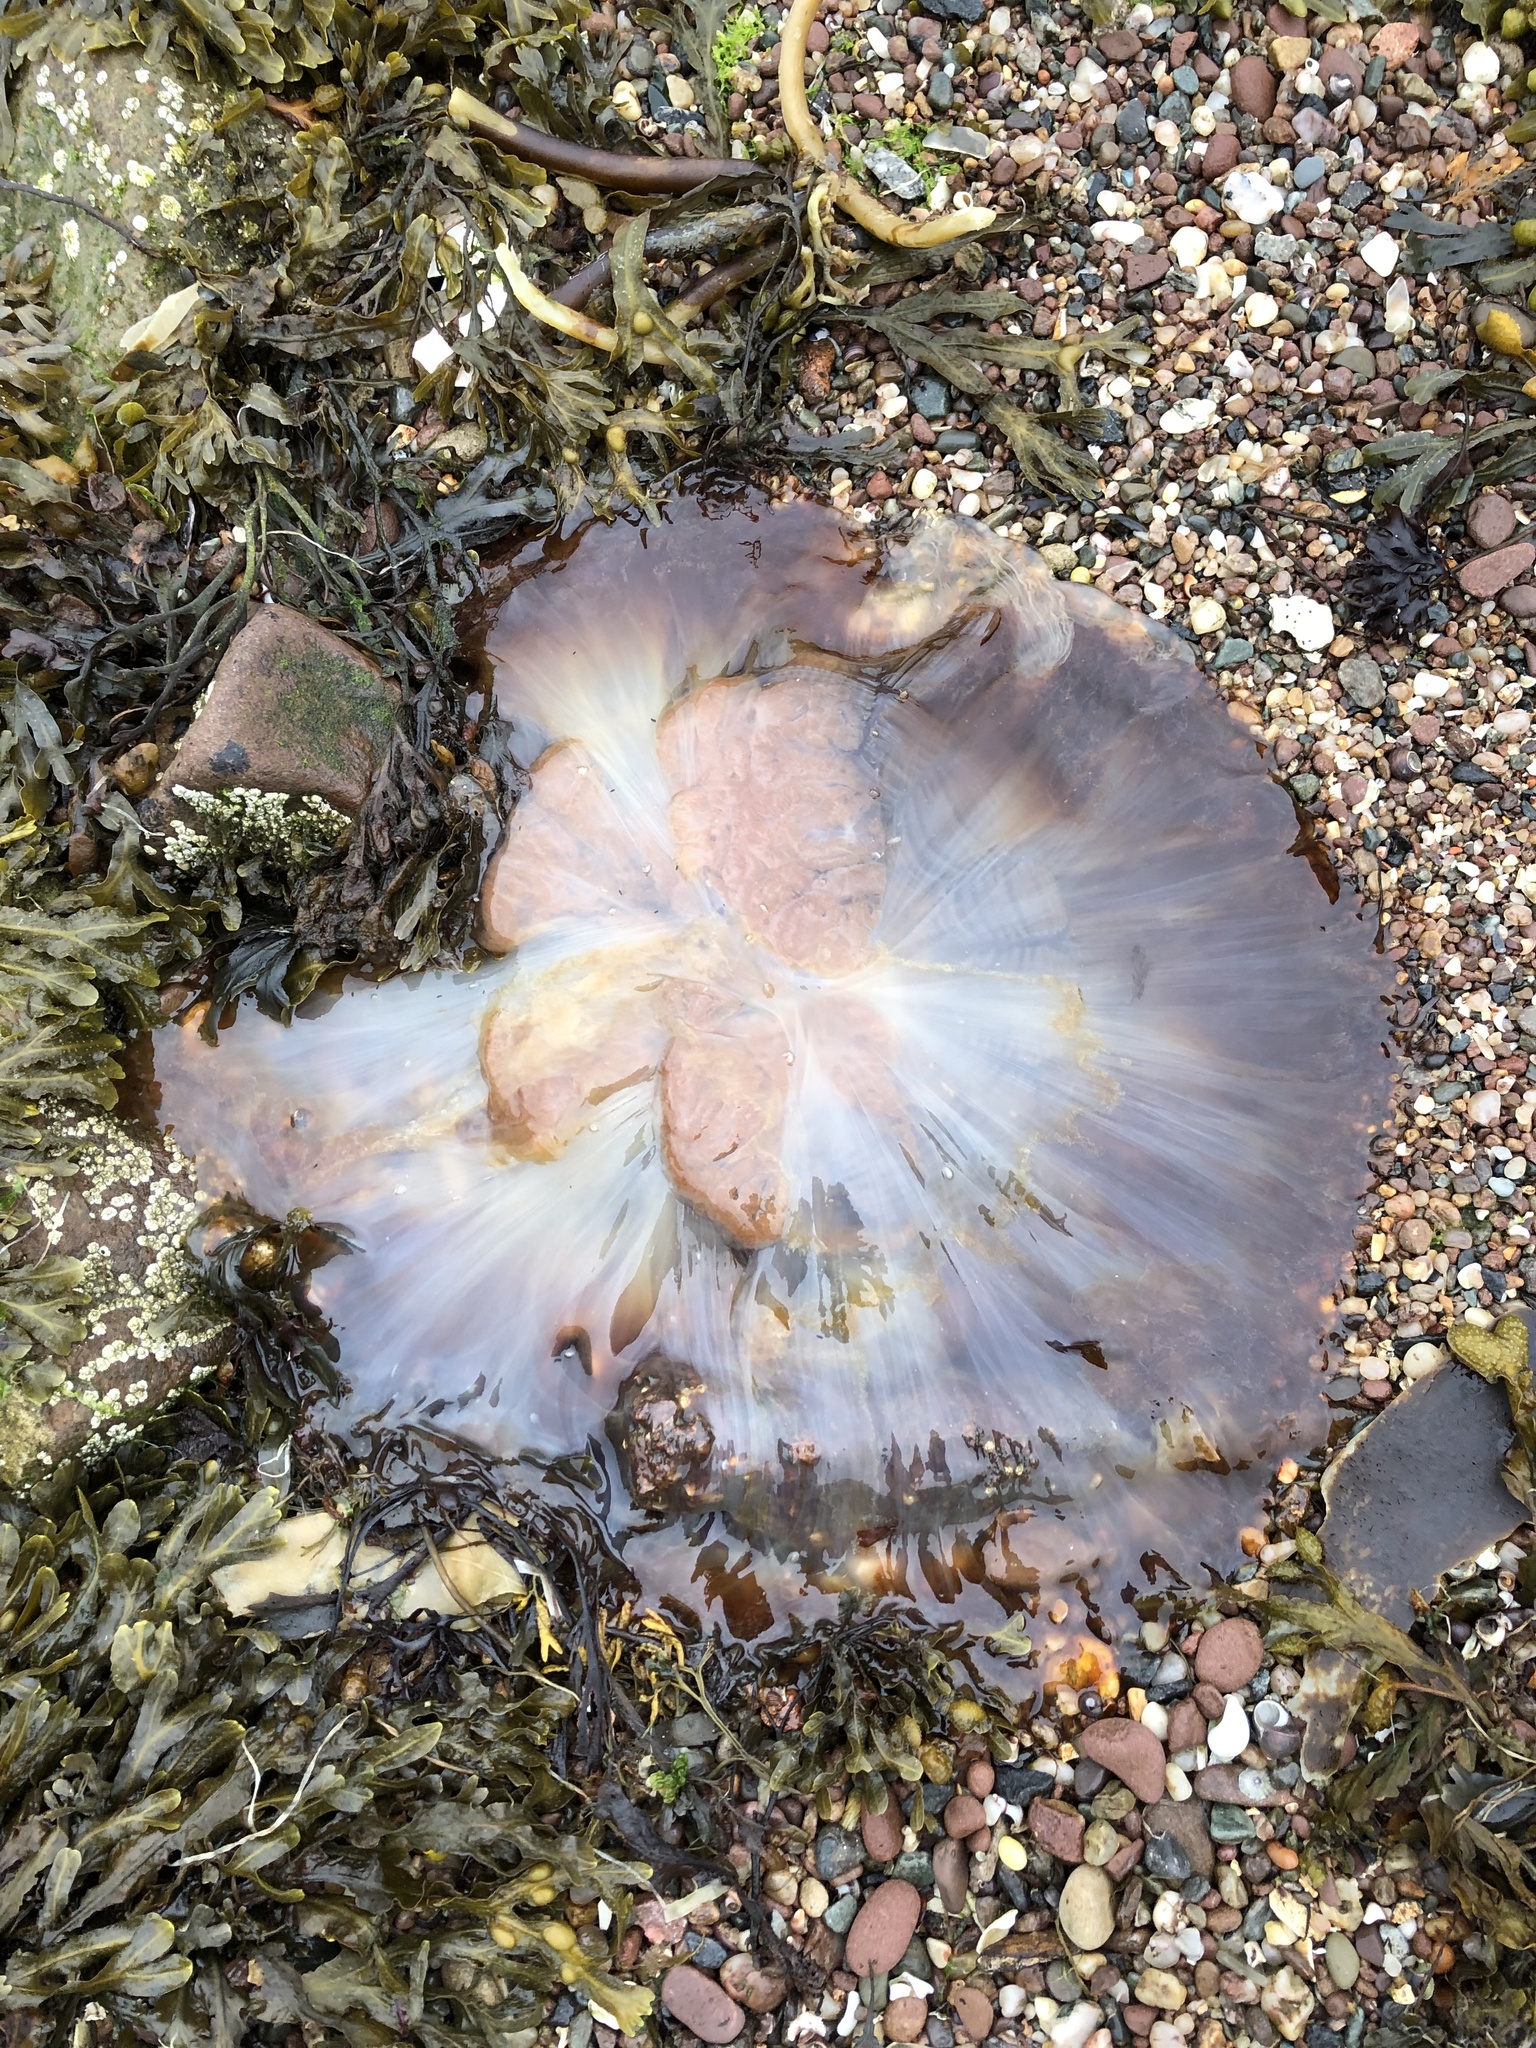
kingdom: Animalia
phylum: Cnidaria
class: Scyphozoa
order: Semaeostomeae
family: Cyaneidae
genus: Cyanea
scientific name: Cyanea capillata
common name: Lion's mane jellyfish
